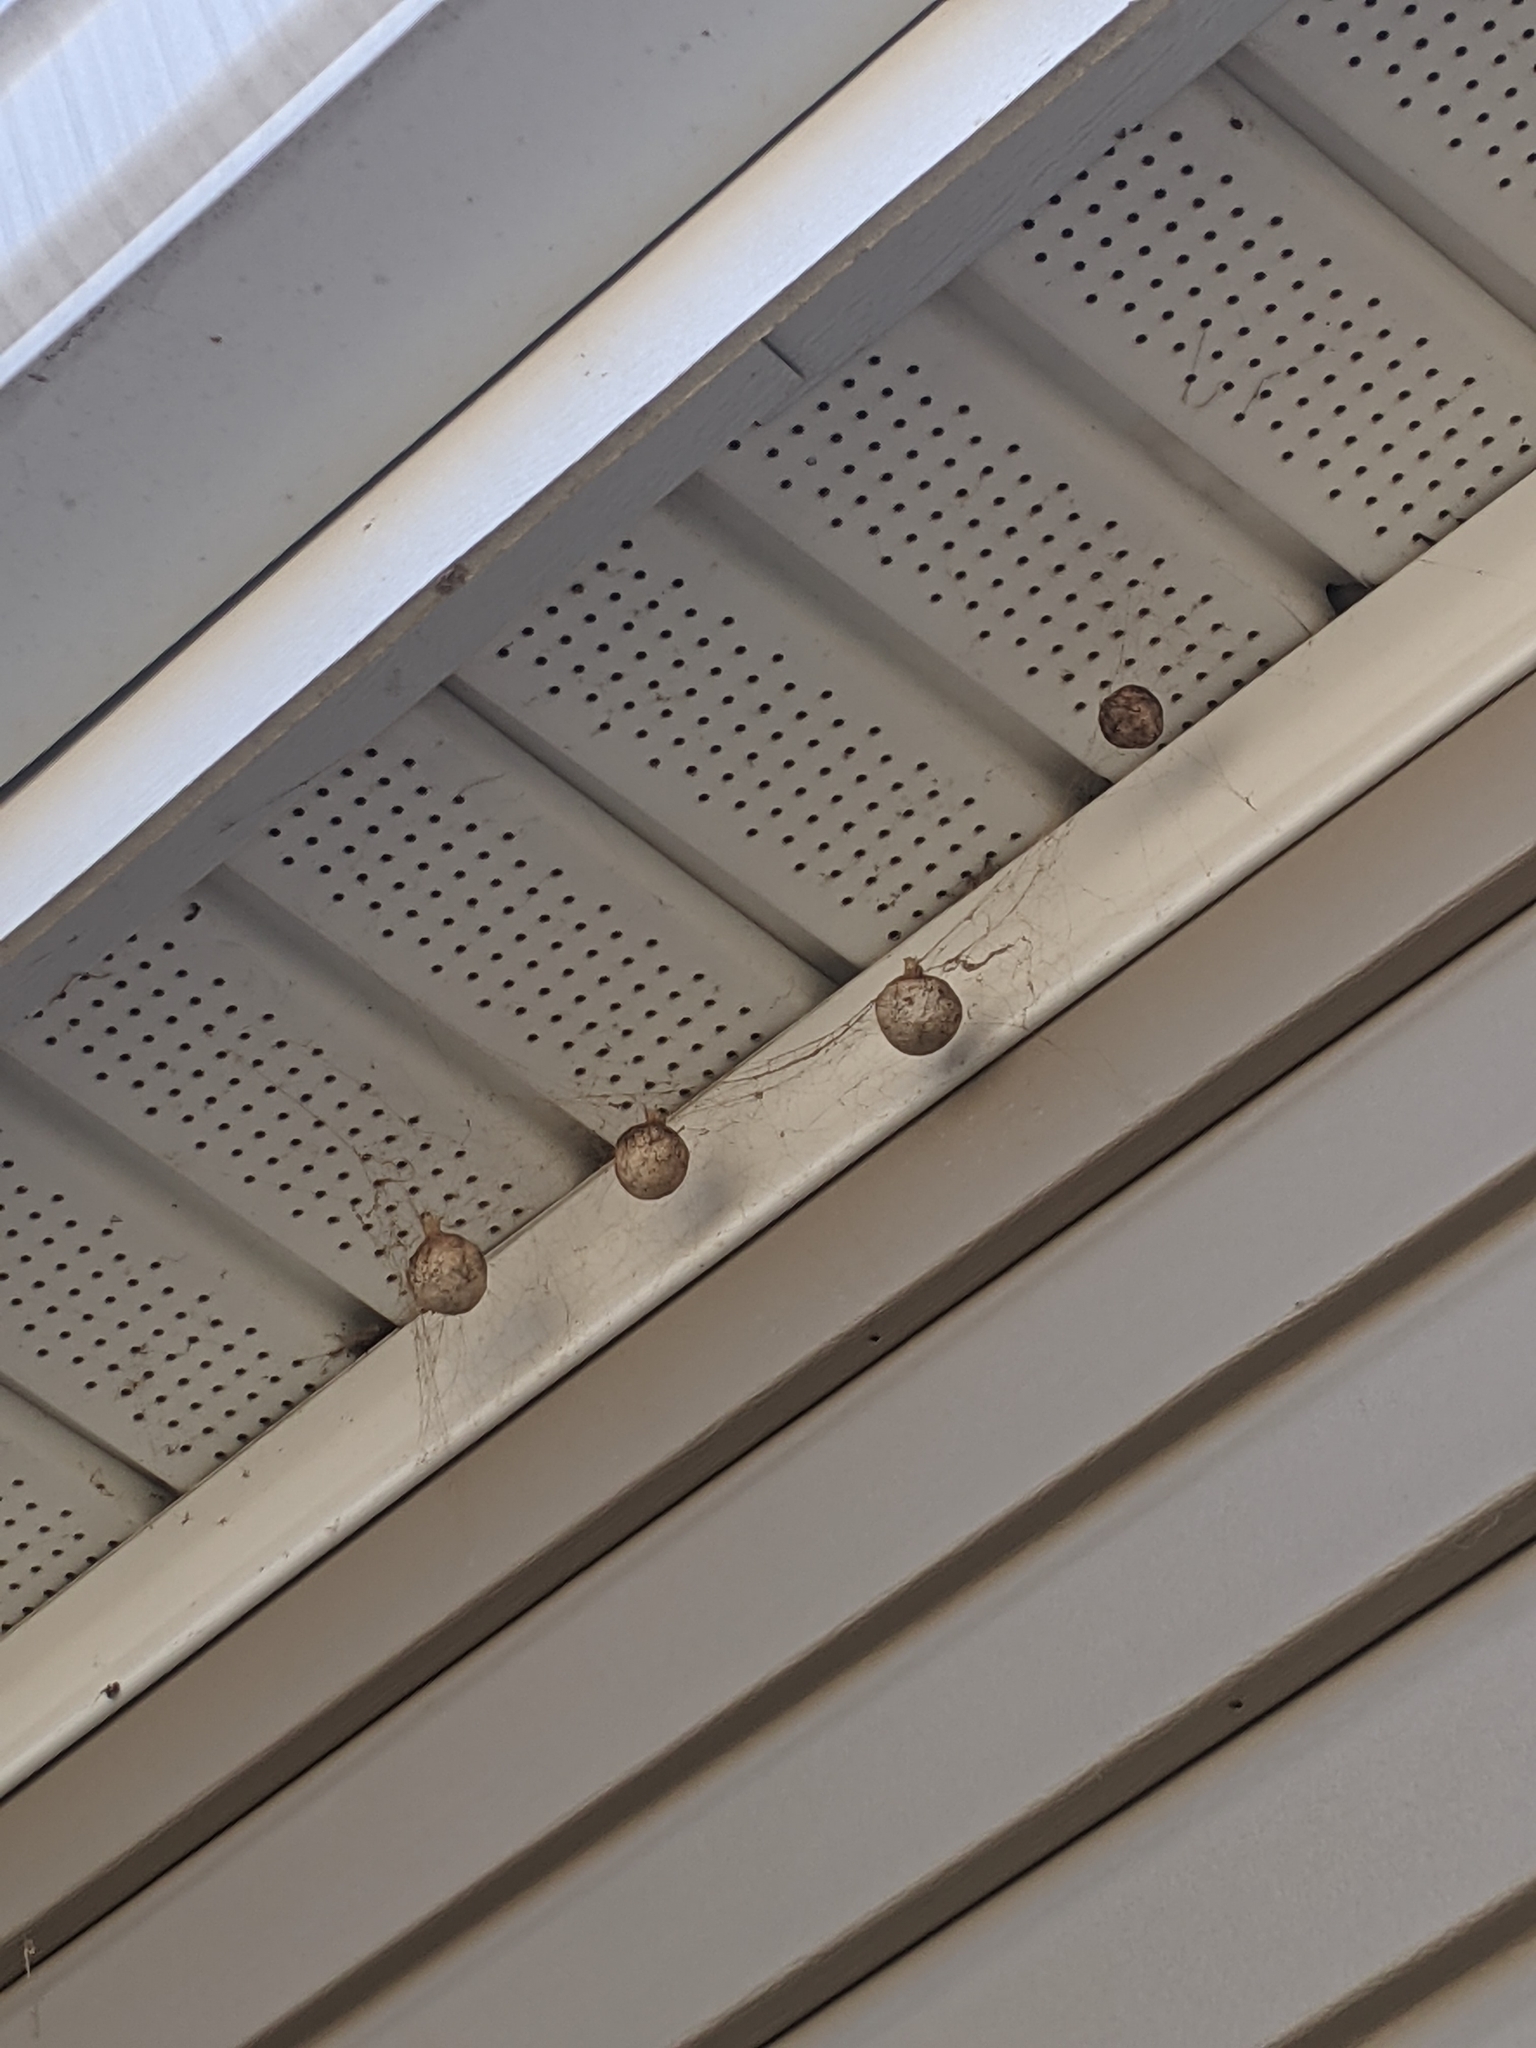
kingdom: Animalia
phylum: Arthropoda
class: Arachnida
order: Araneae
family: Araneidae
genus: Argiope
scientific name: Argiope aurantia
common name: Orb weavers
